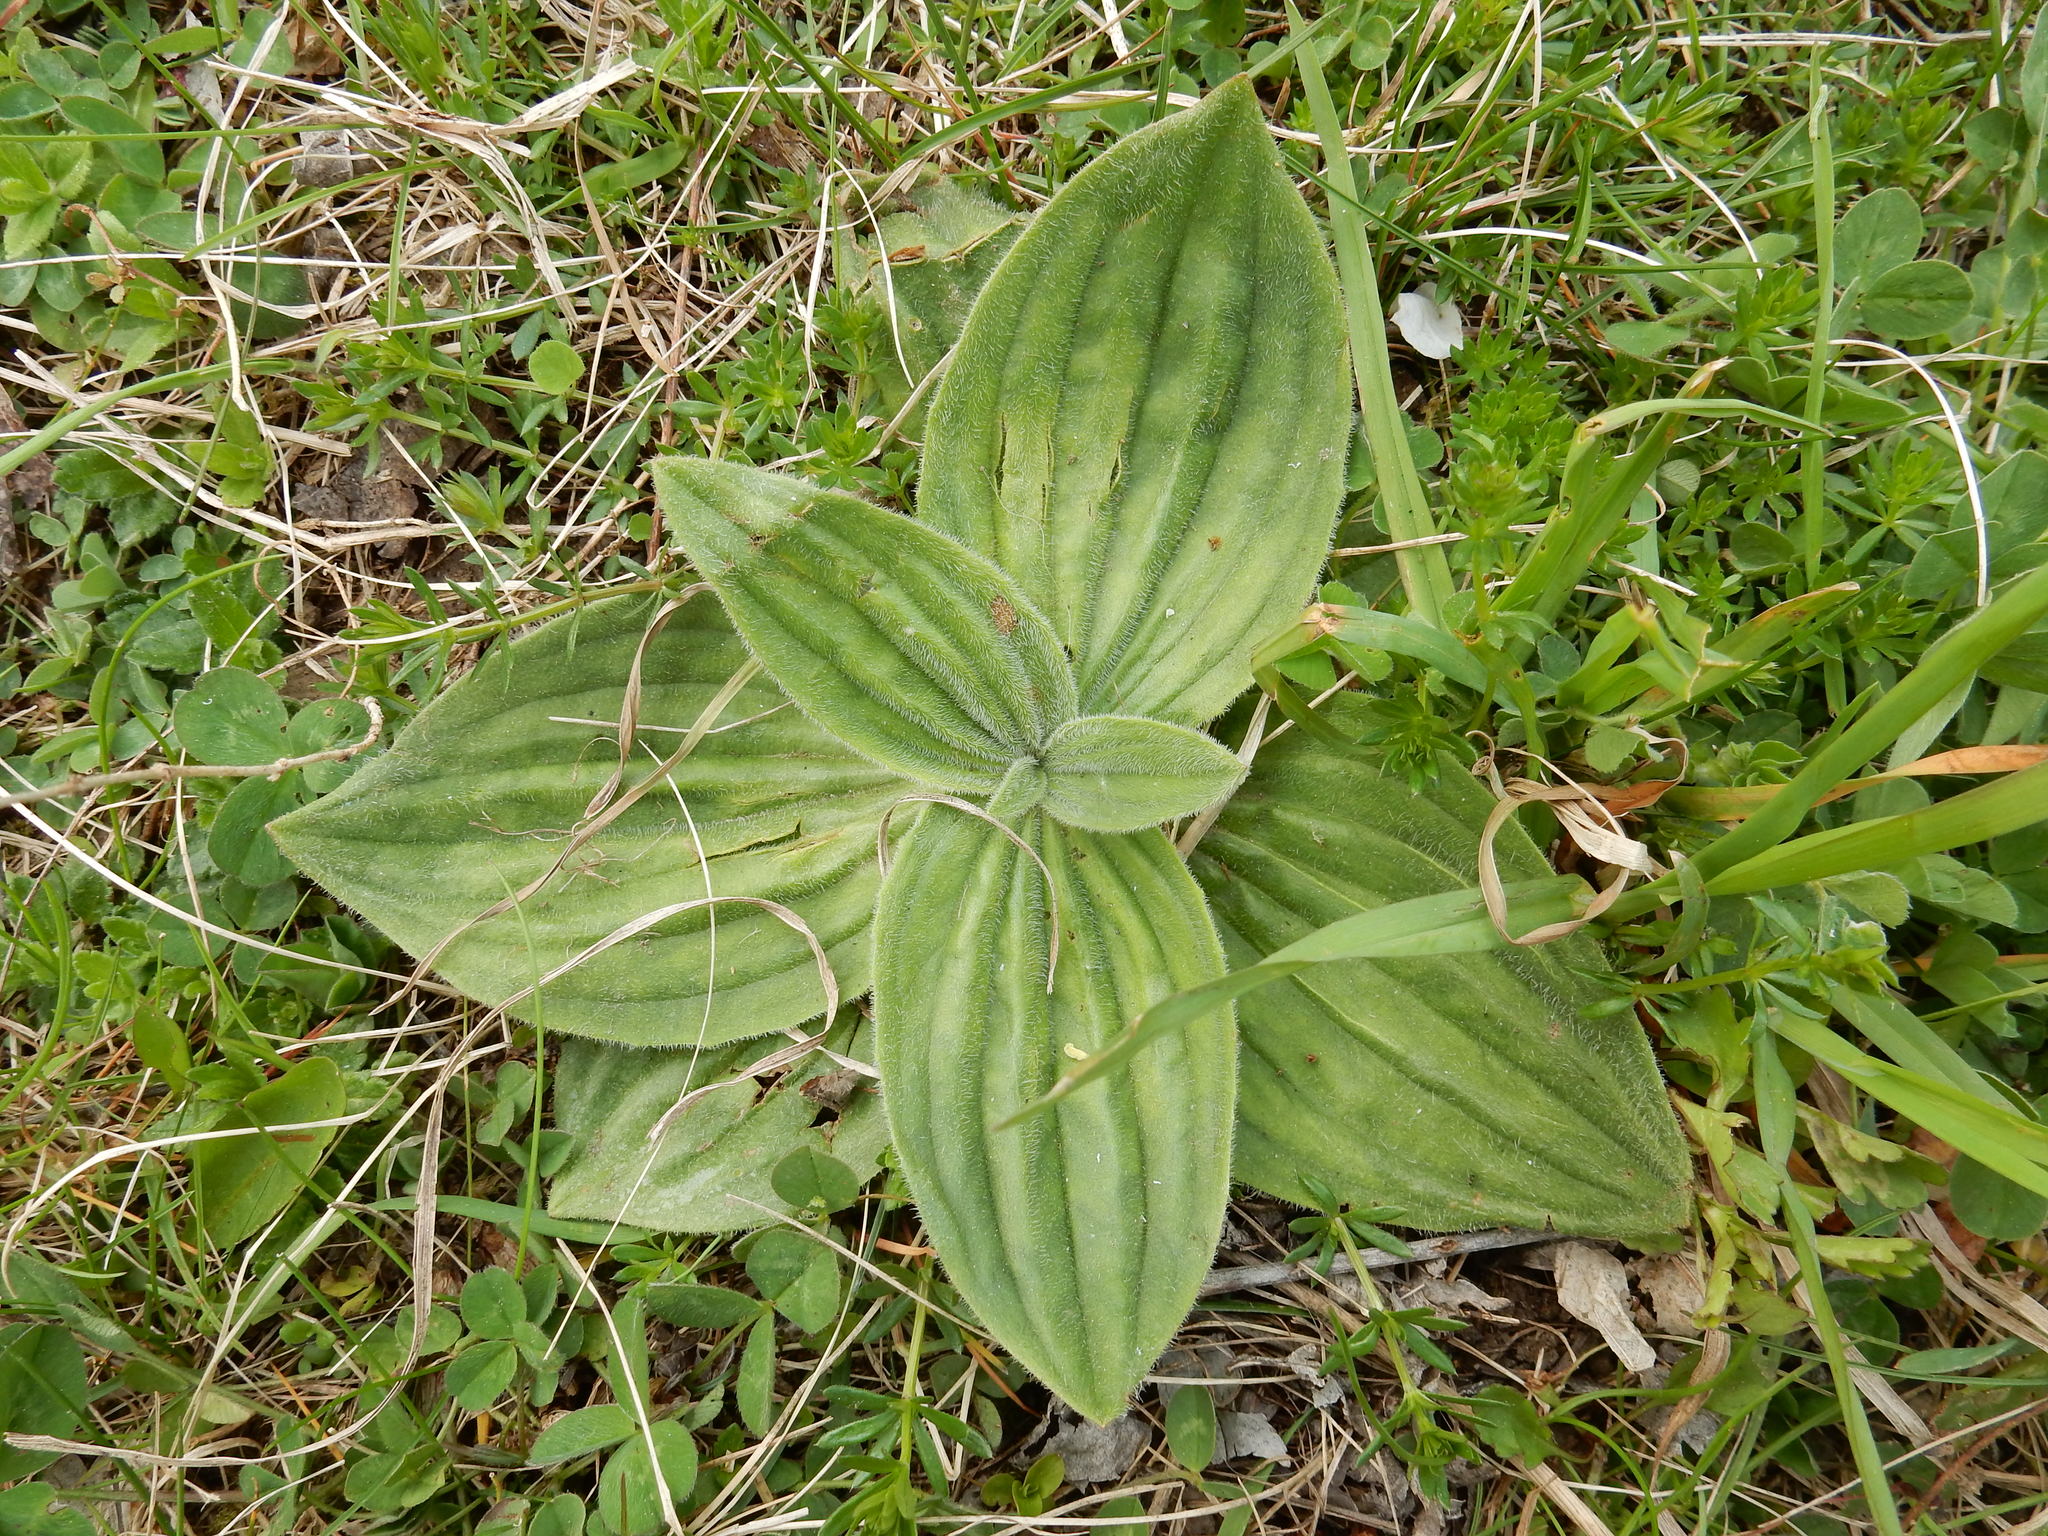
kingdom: Plantae
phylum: Tracheophyta
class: Magnoliopsida
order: Lamiales
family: Plantaginaceae
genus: Plantago
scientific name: Plantago media
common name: Hoary plantain
